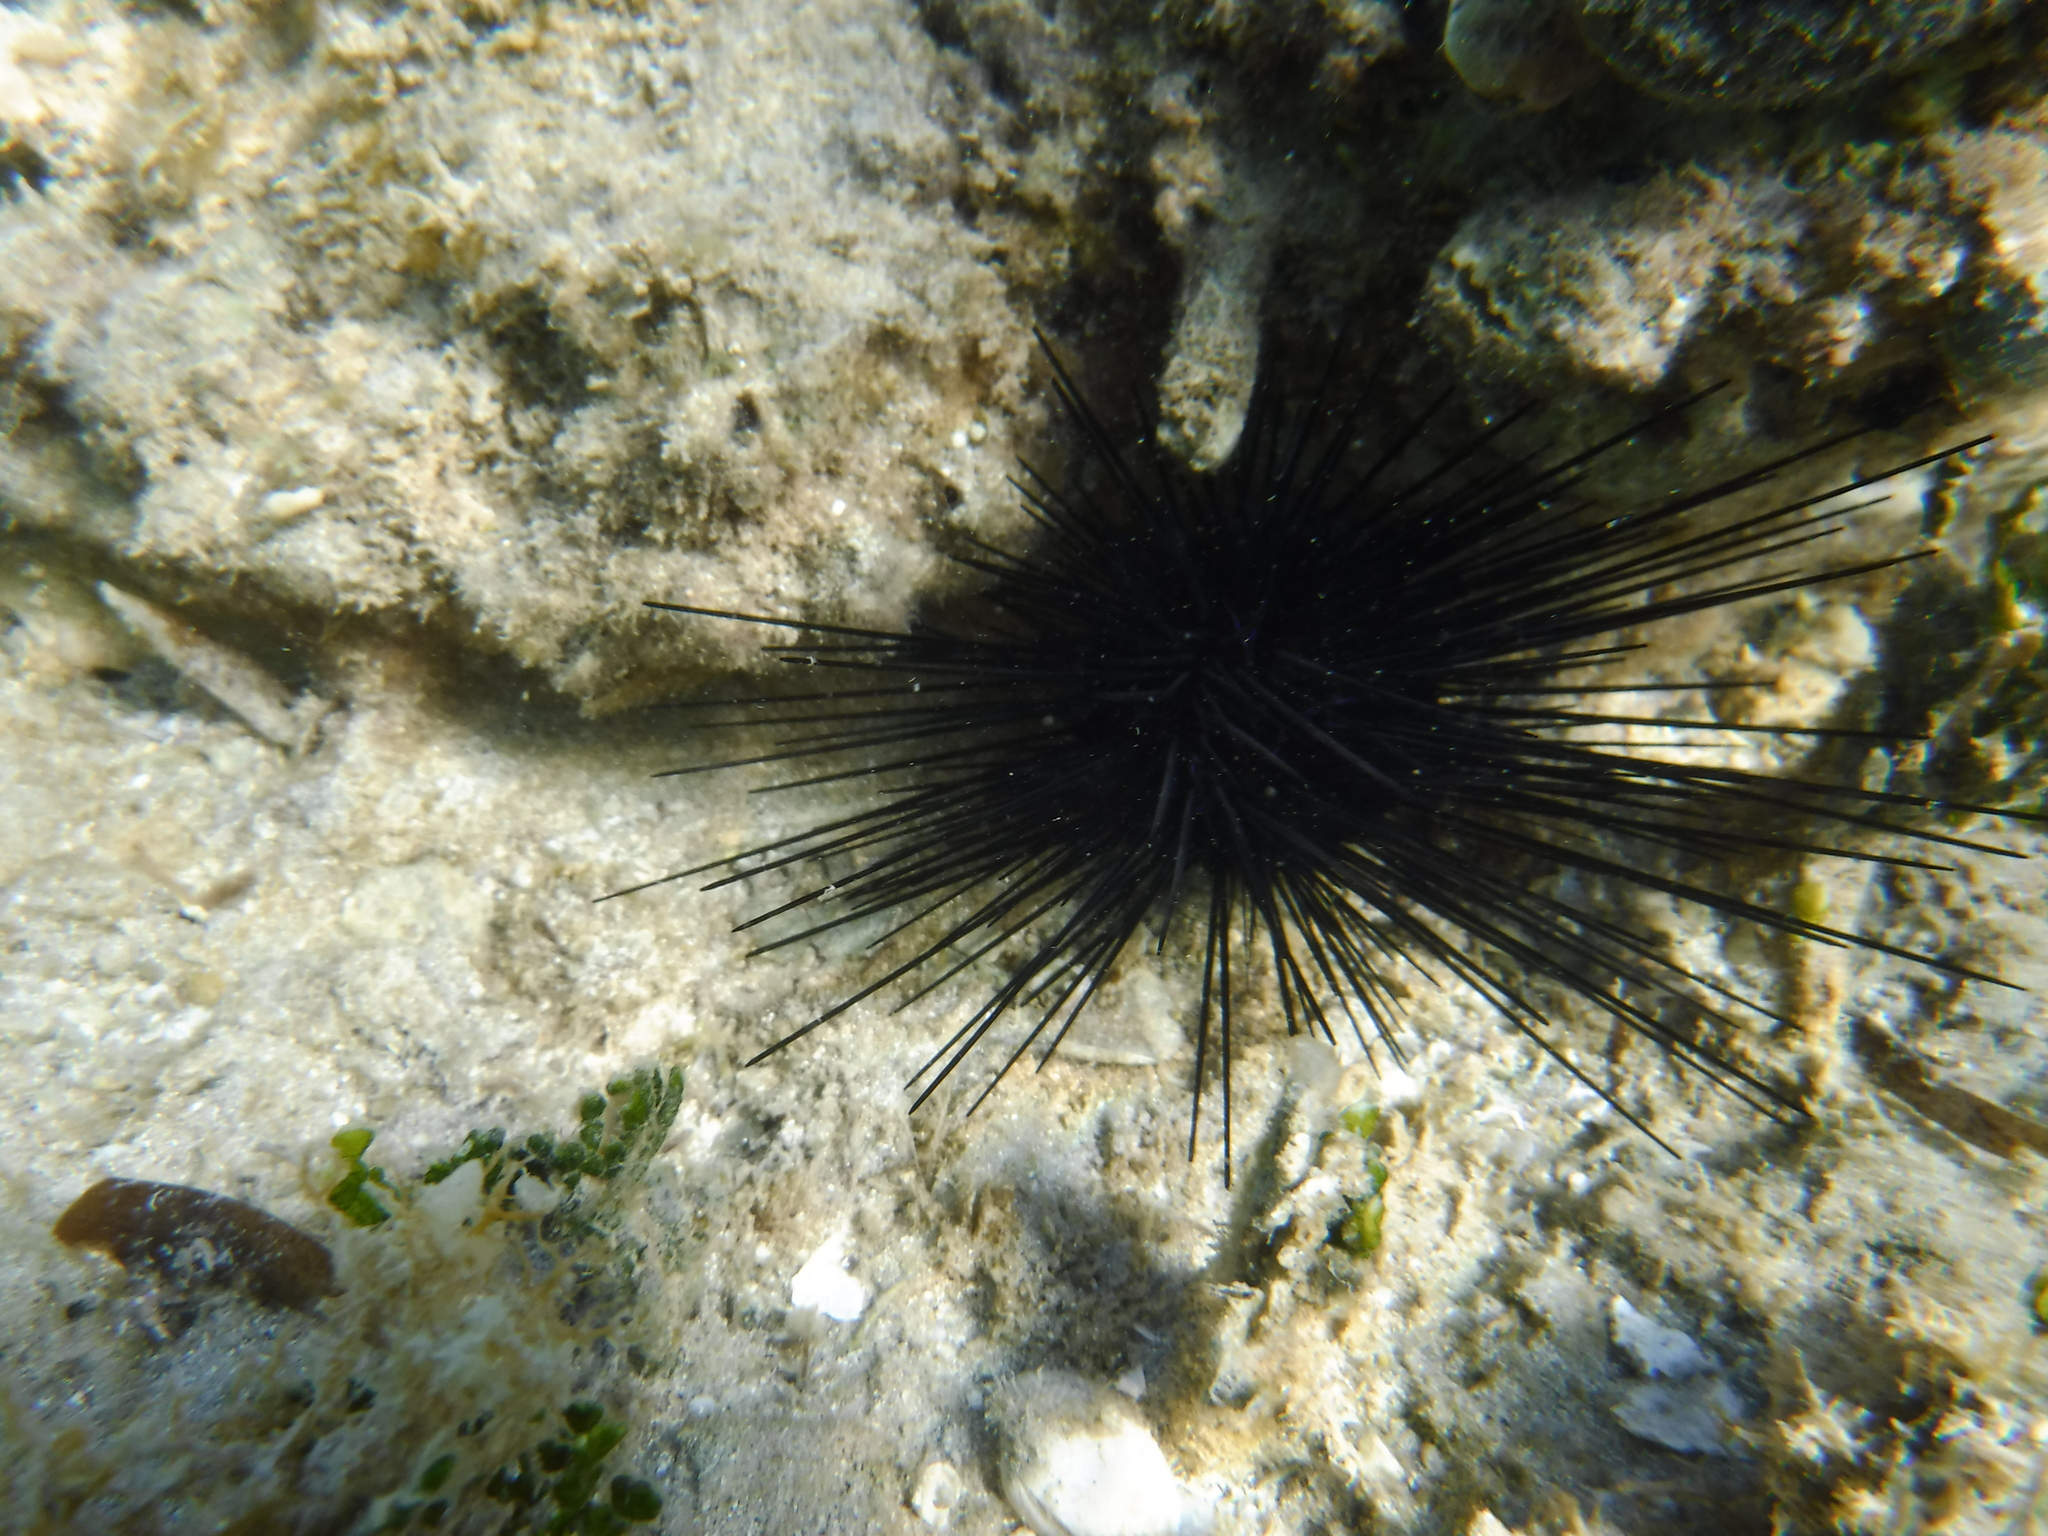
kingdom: Animalia
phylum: Echinodermata
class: Echinoidea
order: Diadematoida
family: Diadematidae
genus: Diadema
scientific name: Diadema antillarum
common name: Spiny urchin
